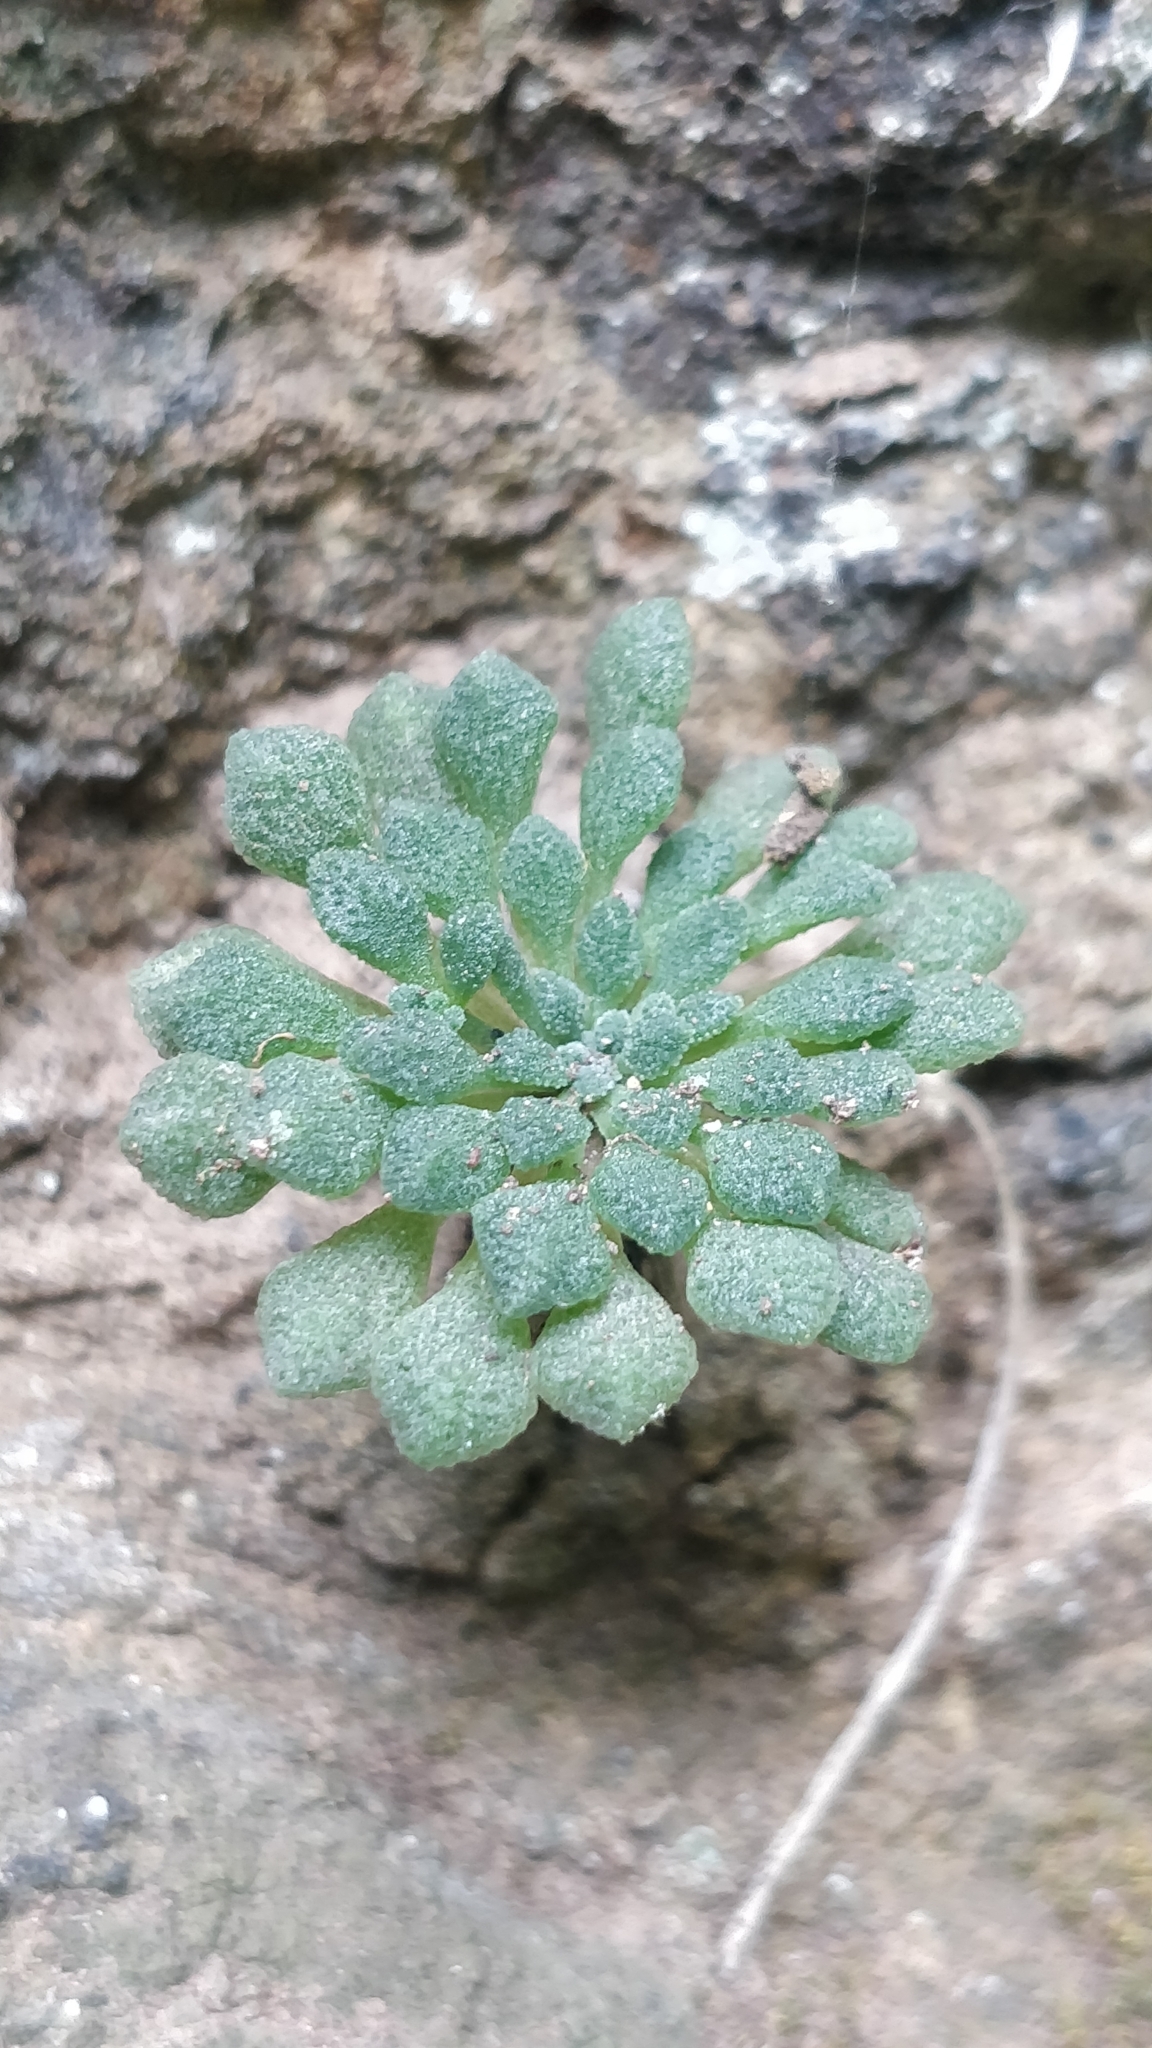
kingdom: Plantae
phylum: Tracheophyta
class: Magnoliopsida
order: Saxifragales
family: Crassulaceae
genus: Monanthes
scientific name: Monanthes brachycaulos
